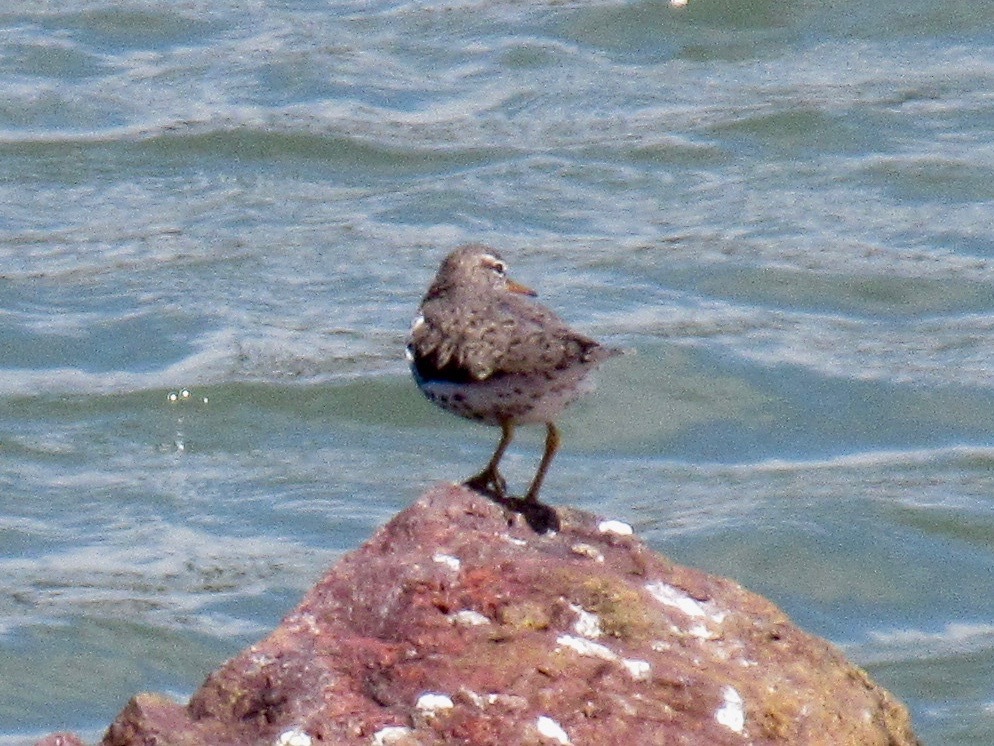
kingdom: Animalia
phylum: Chordata
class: Aves
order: Charadriiformes
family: Scolopacidae
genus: Actitis
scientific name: Actitis macularius
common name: Spotted sandpiper
